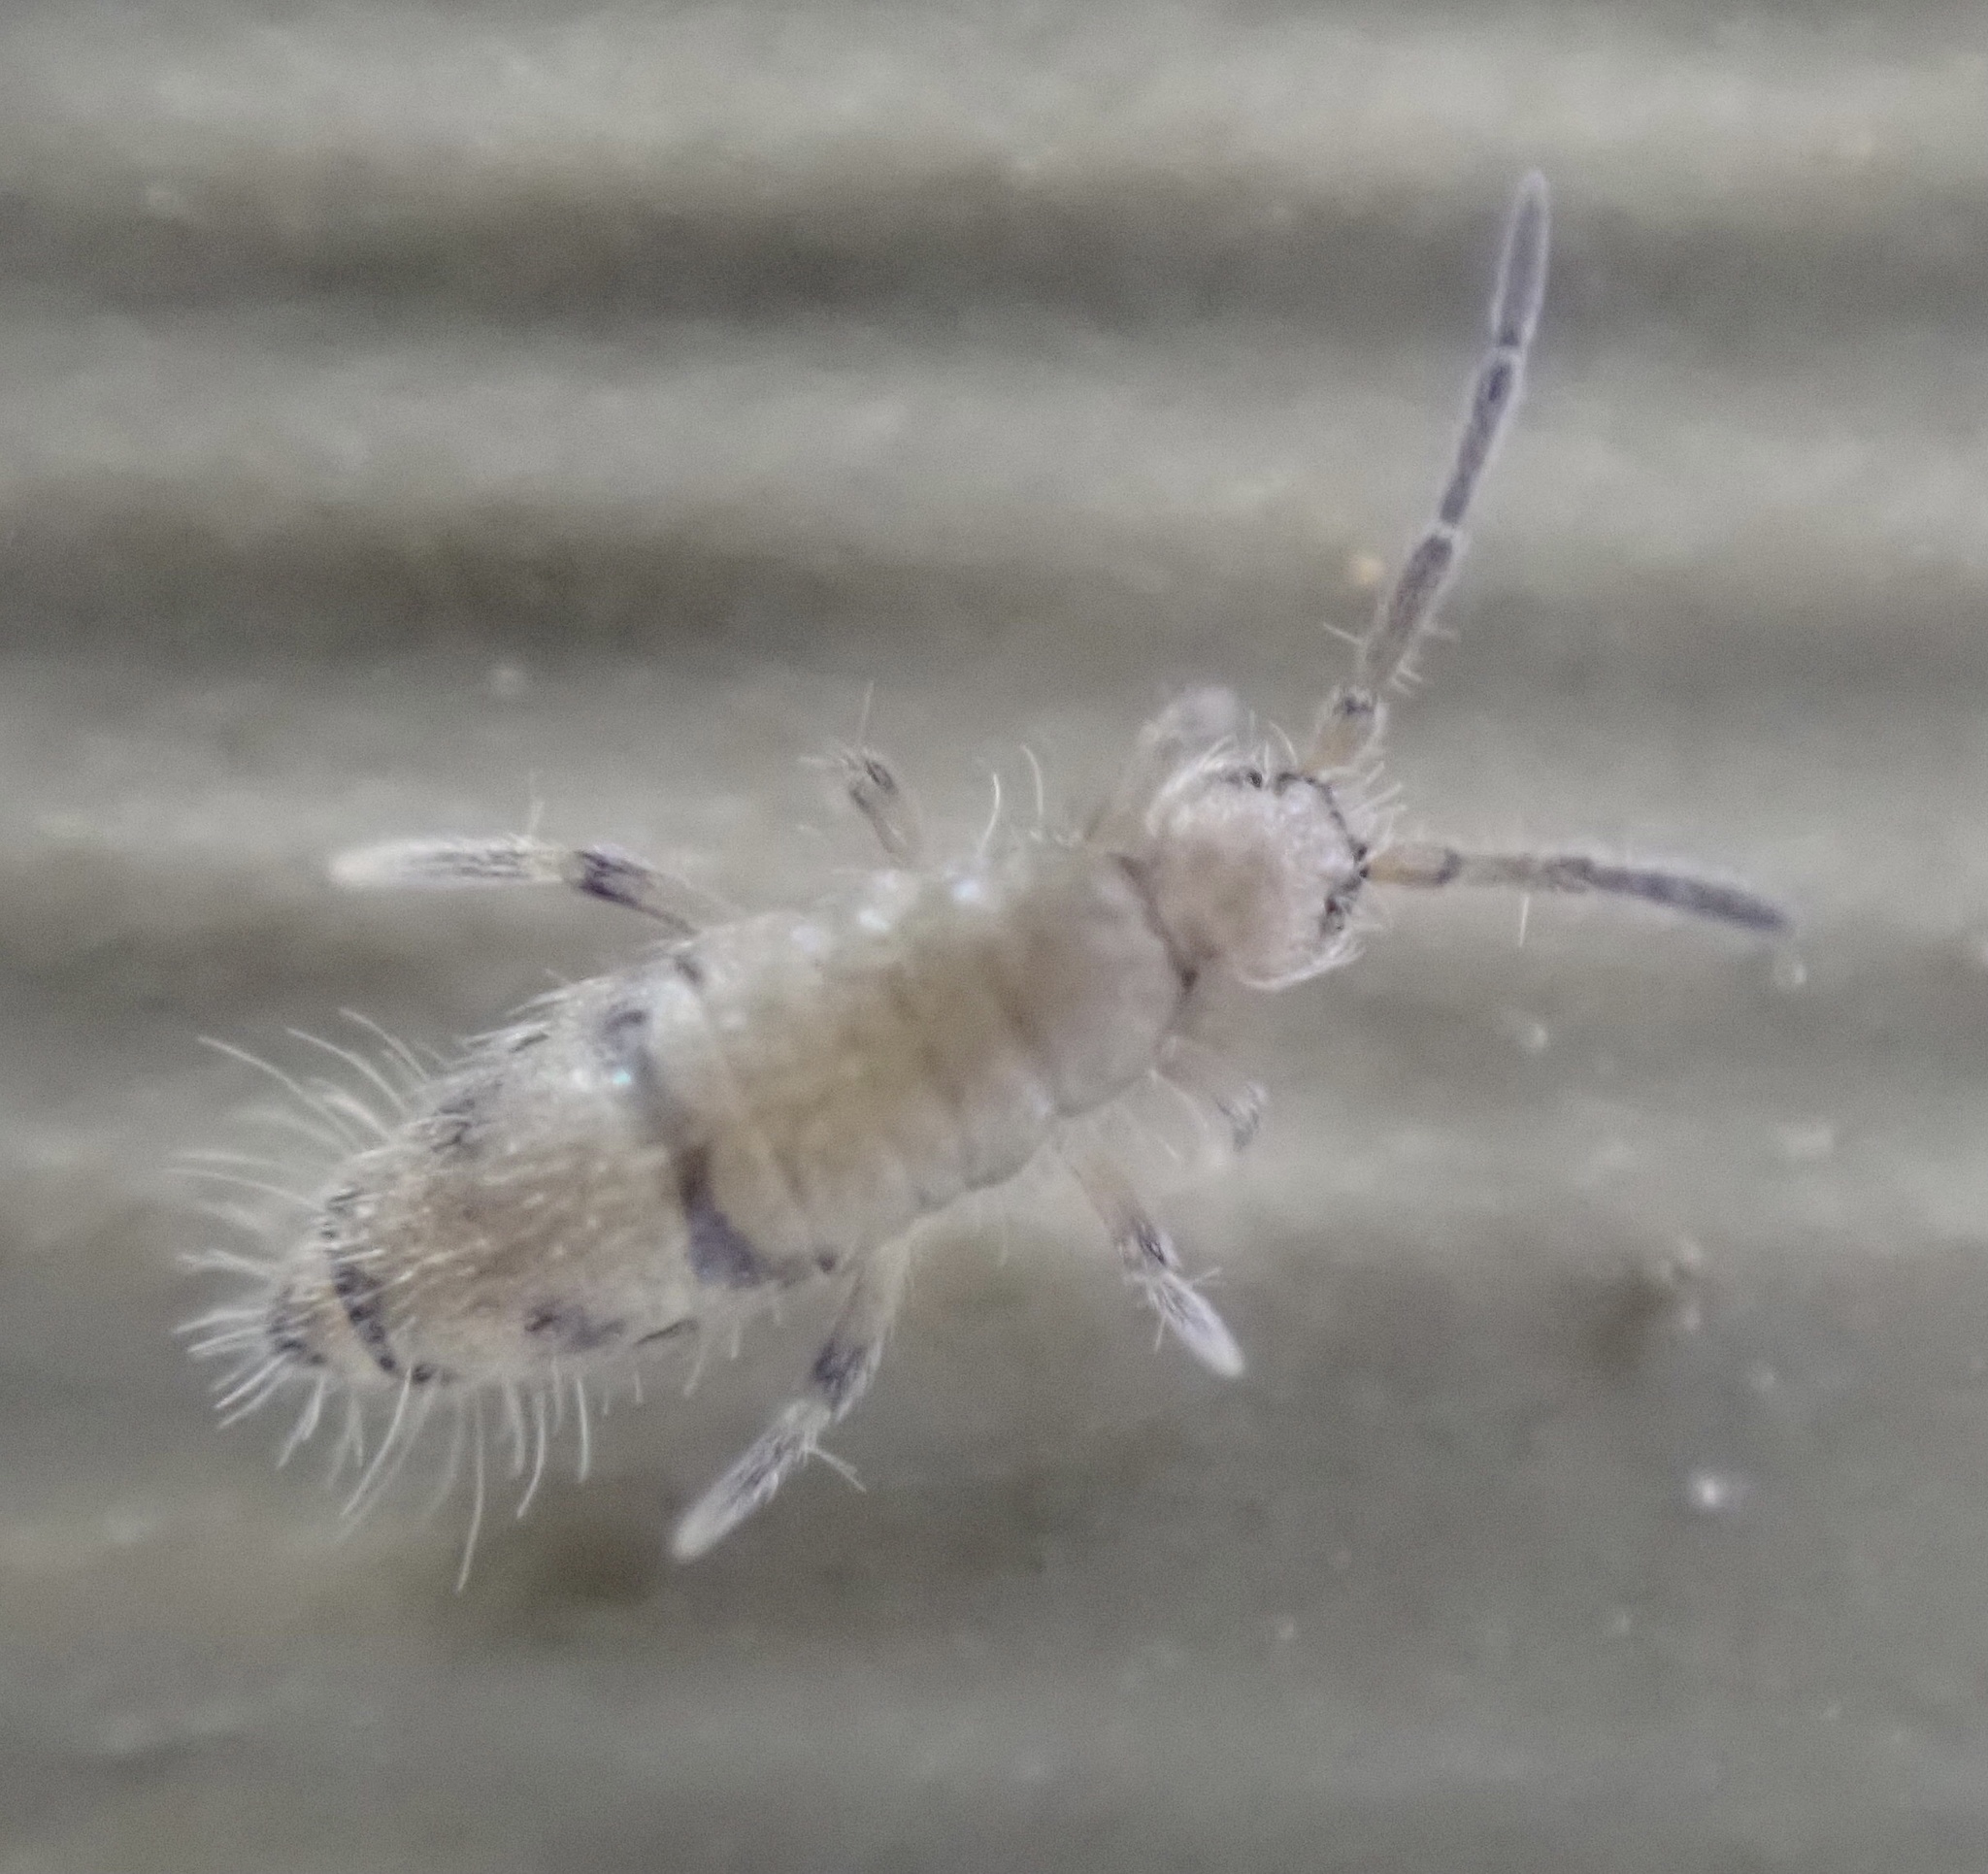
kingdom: Animalia
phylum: Arthropoda
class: Collembola
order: Entomobryomorpha
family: Entomobryidae
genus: Willowsia
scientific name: Willowsia nigromaculata
